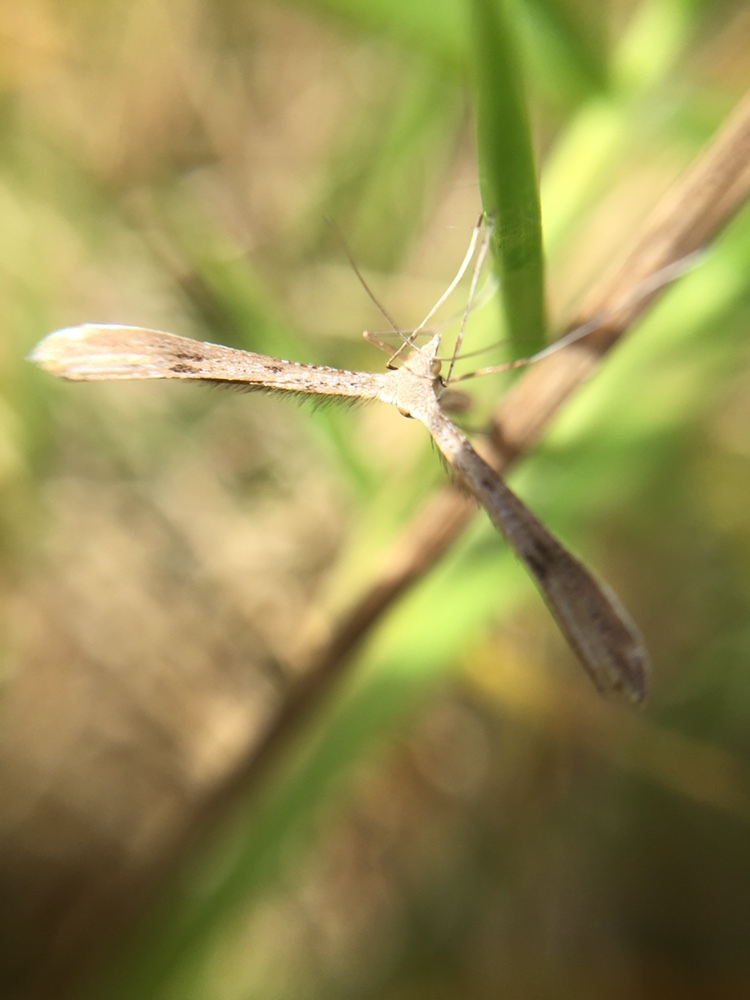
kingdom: Animalia
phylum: Arthropoda
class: Insecta
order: Lepidoptera
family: Pterophoridae
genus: Stenoptilia
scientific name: Stenoptilia zophodactylus
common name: Dowdy plume
